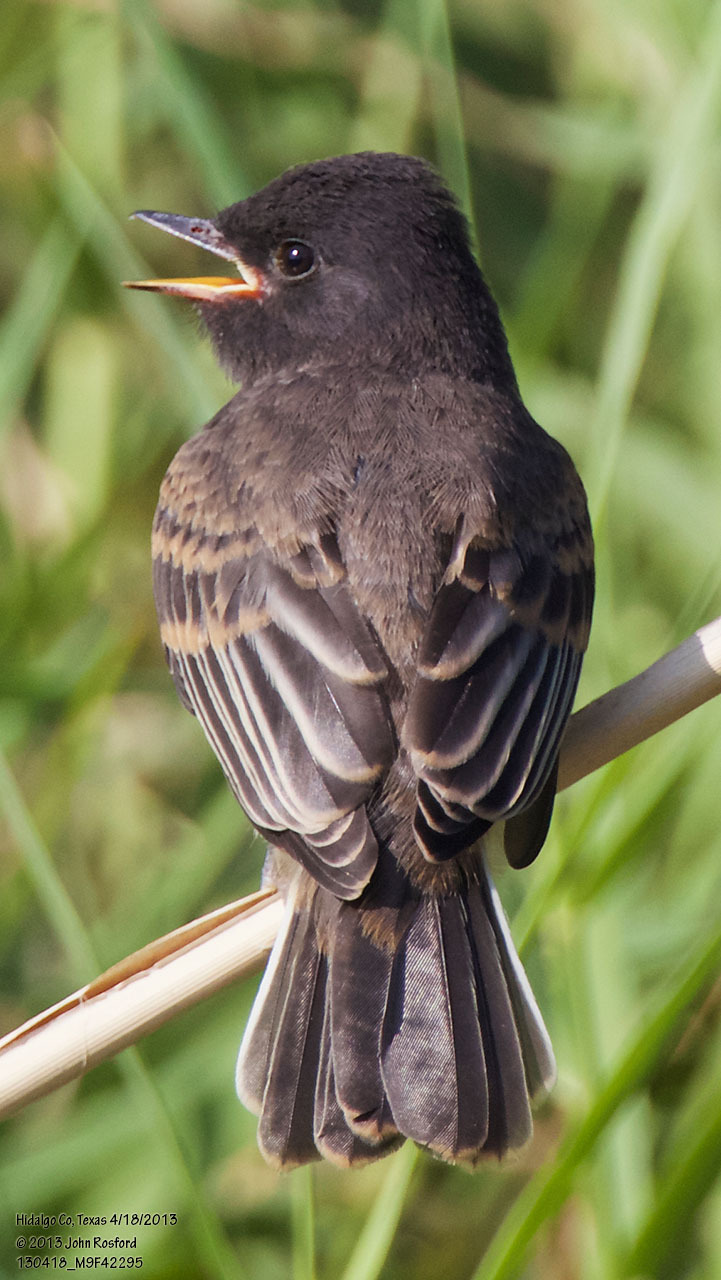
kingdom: Animalia
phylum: Chordata
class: Aves
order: Passeriformes
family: Tyrannidae
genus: Sayornis
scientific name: Sayornis nigricans
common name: Black phoebe
